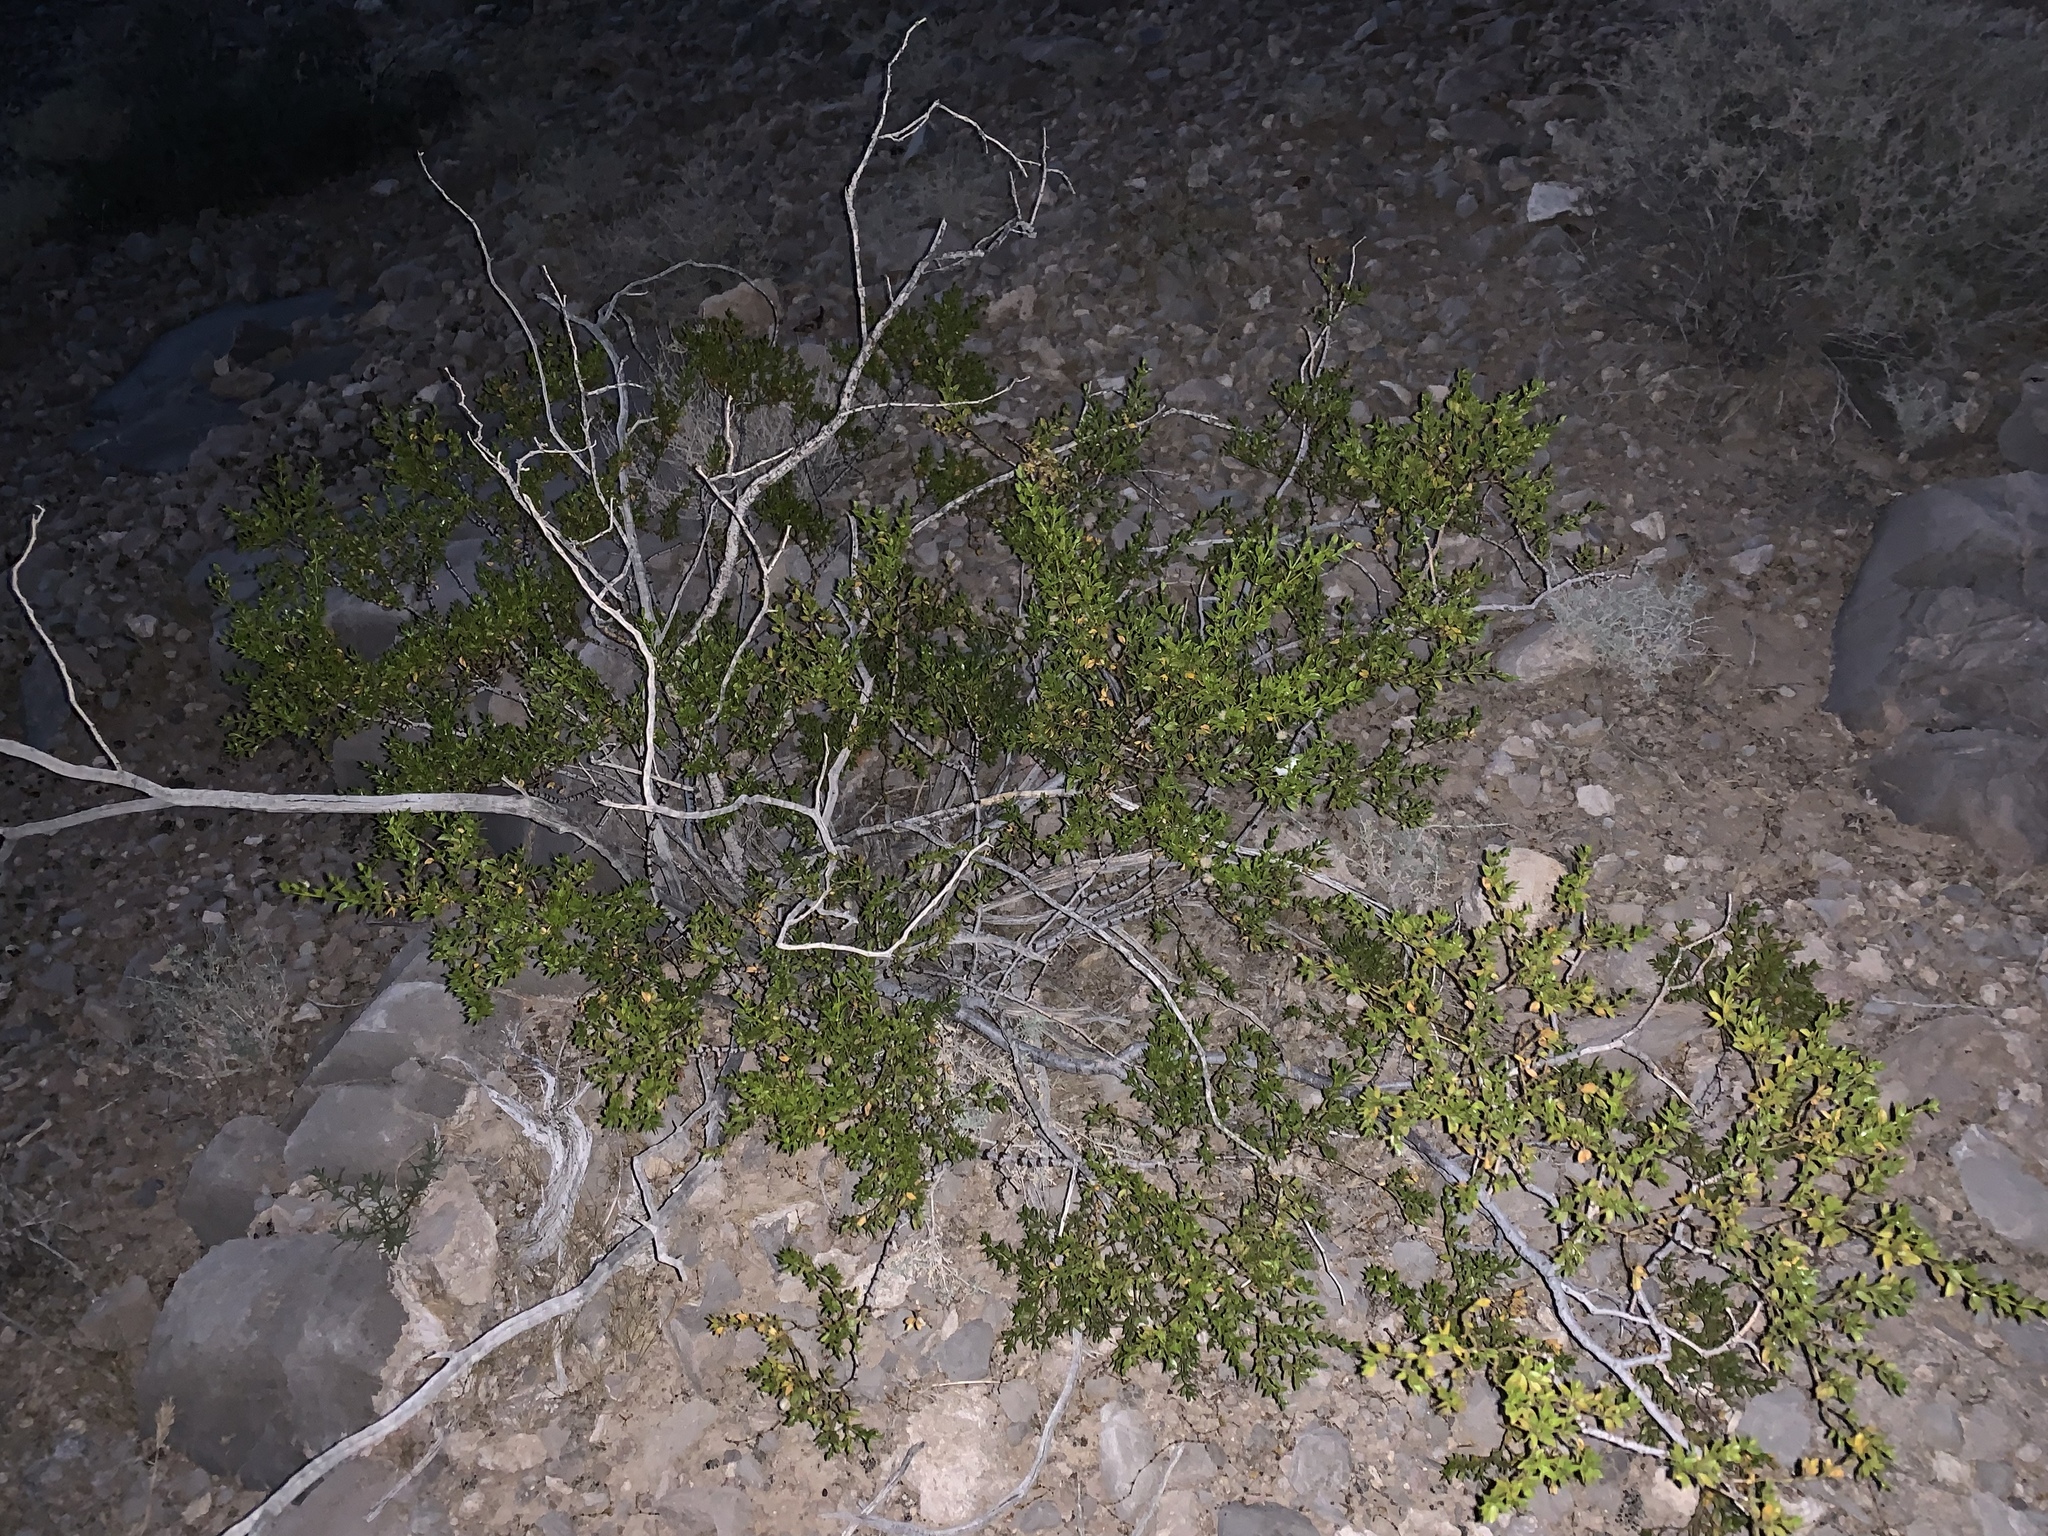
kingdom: Plantae
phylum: Tracheophyta
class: Magnoliopsida
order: Zygophyllales
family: Zygophyllaceae
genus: Larrea
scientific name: Larrea tridentata
